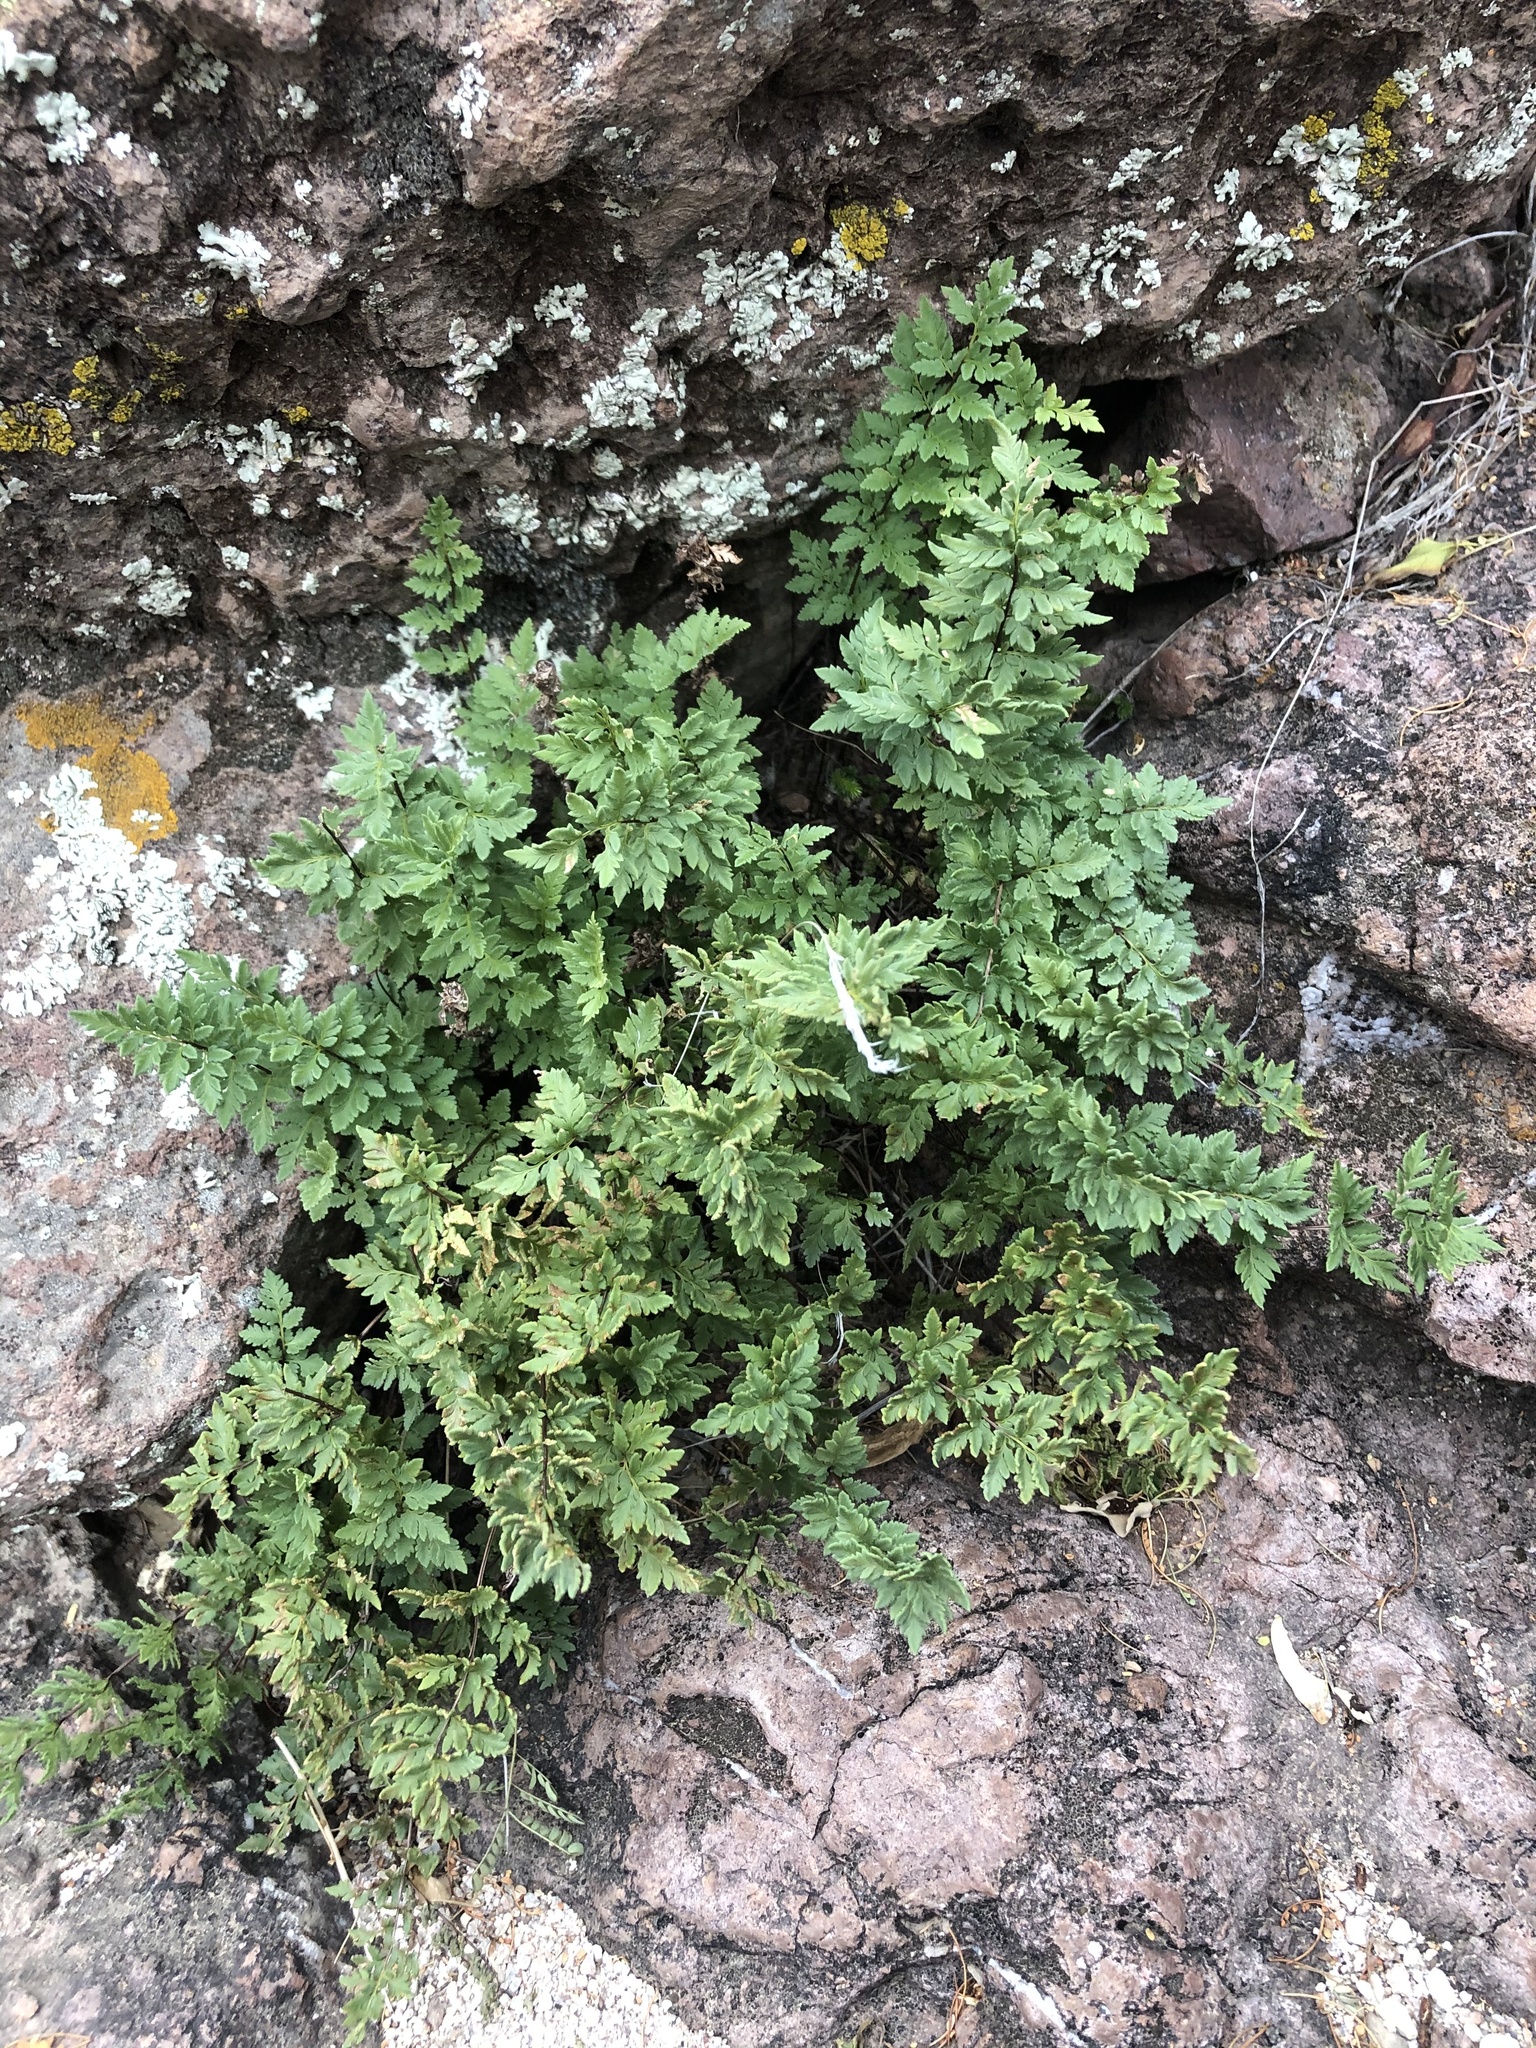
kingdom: Plantae
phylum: Tracheophyta
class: Polypodiopsida
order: Polypodiales
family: Pteridaceae
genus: Myriopteris
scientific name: Myriopteris wrightii
